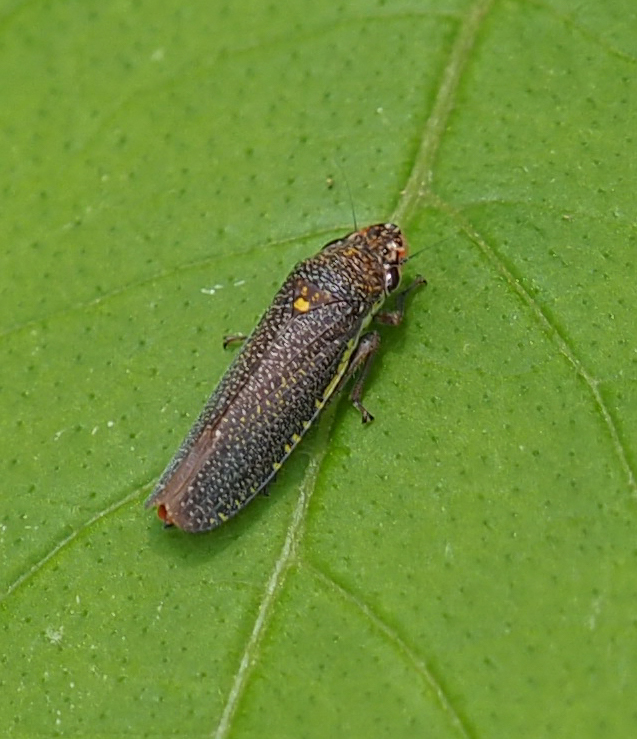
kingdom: Animalia
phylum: Arthropoda
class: Insecta
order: Hemiptera
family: Cicadellidae
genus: Paraulacizes
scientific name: Paraulacizes irrorata
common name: Speckled sharpshooter
